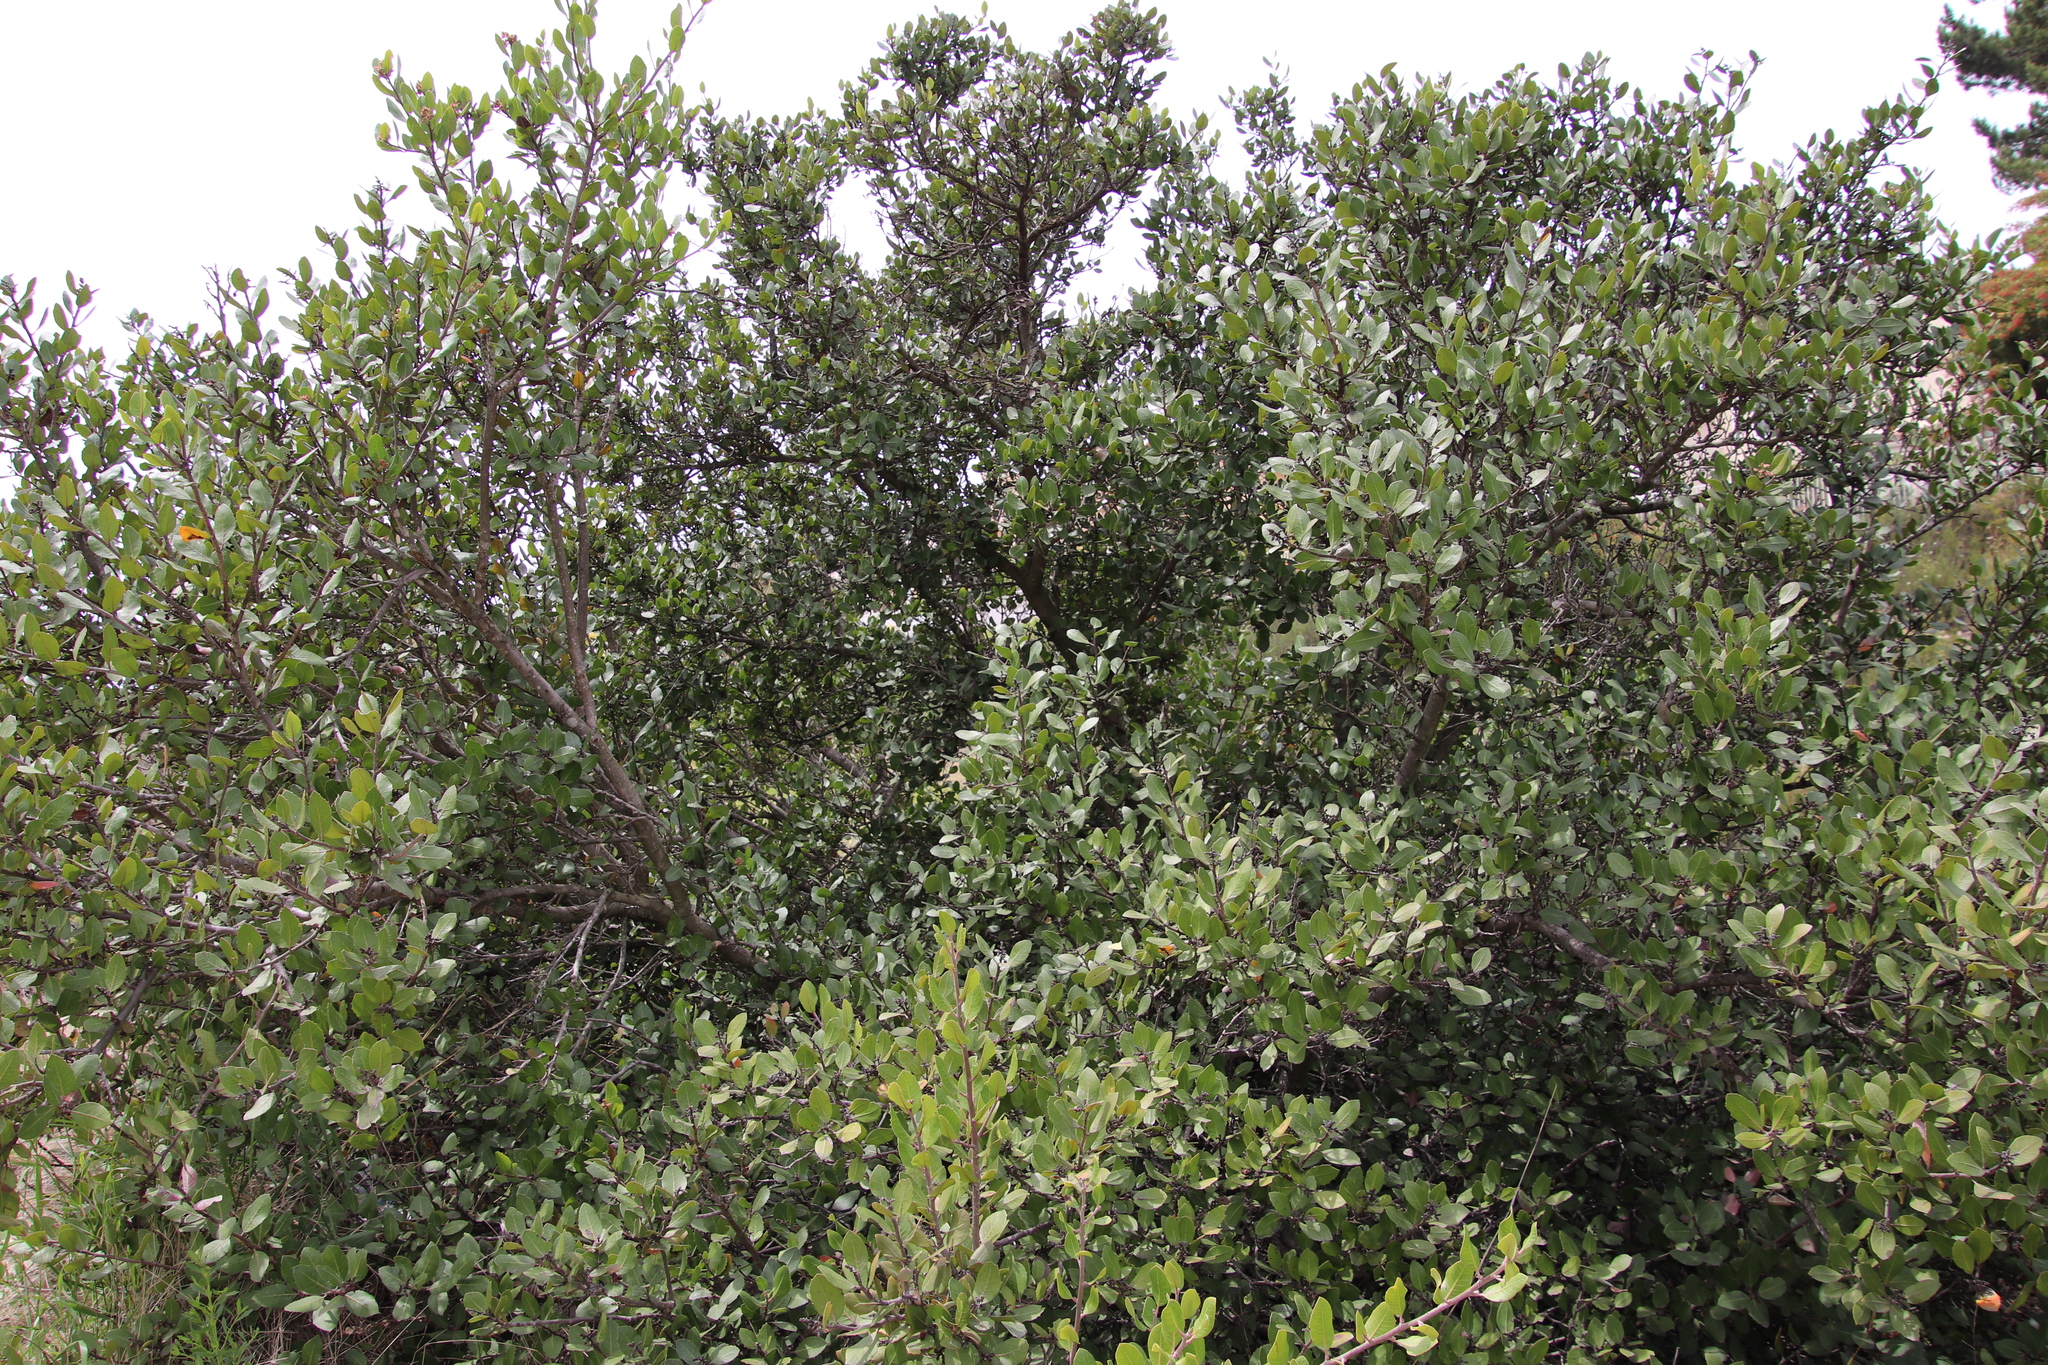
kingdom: Plantae
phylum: Tracheophyta
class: Magnoliopsida
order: Sapindales
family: Anacardiaceae
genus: Rhus
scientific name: Rhus integrifolia
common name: Lemonade sumac
